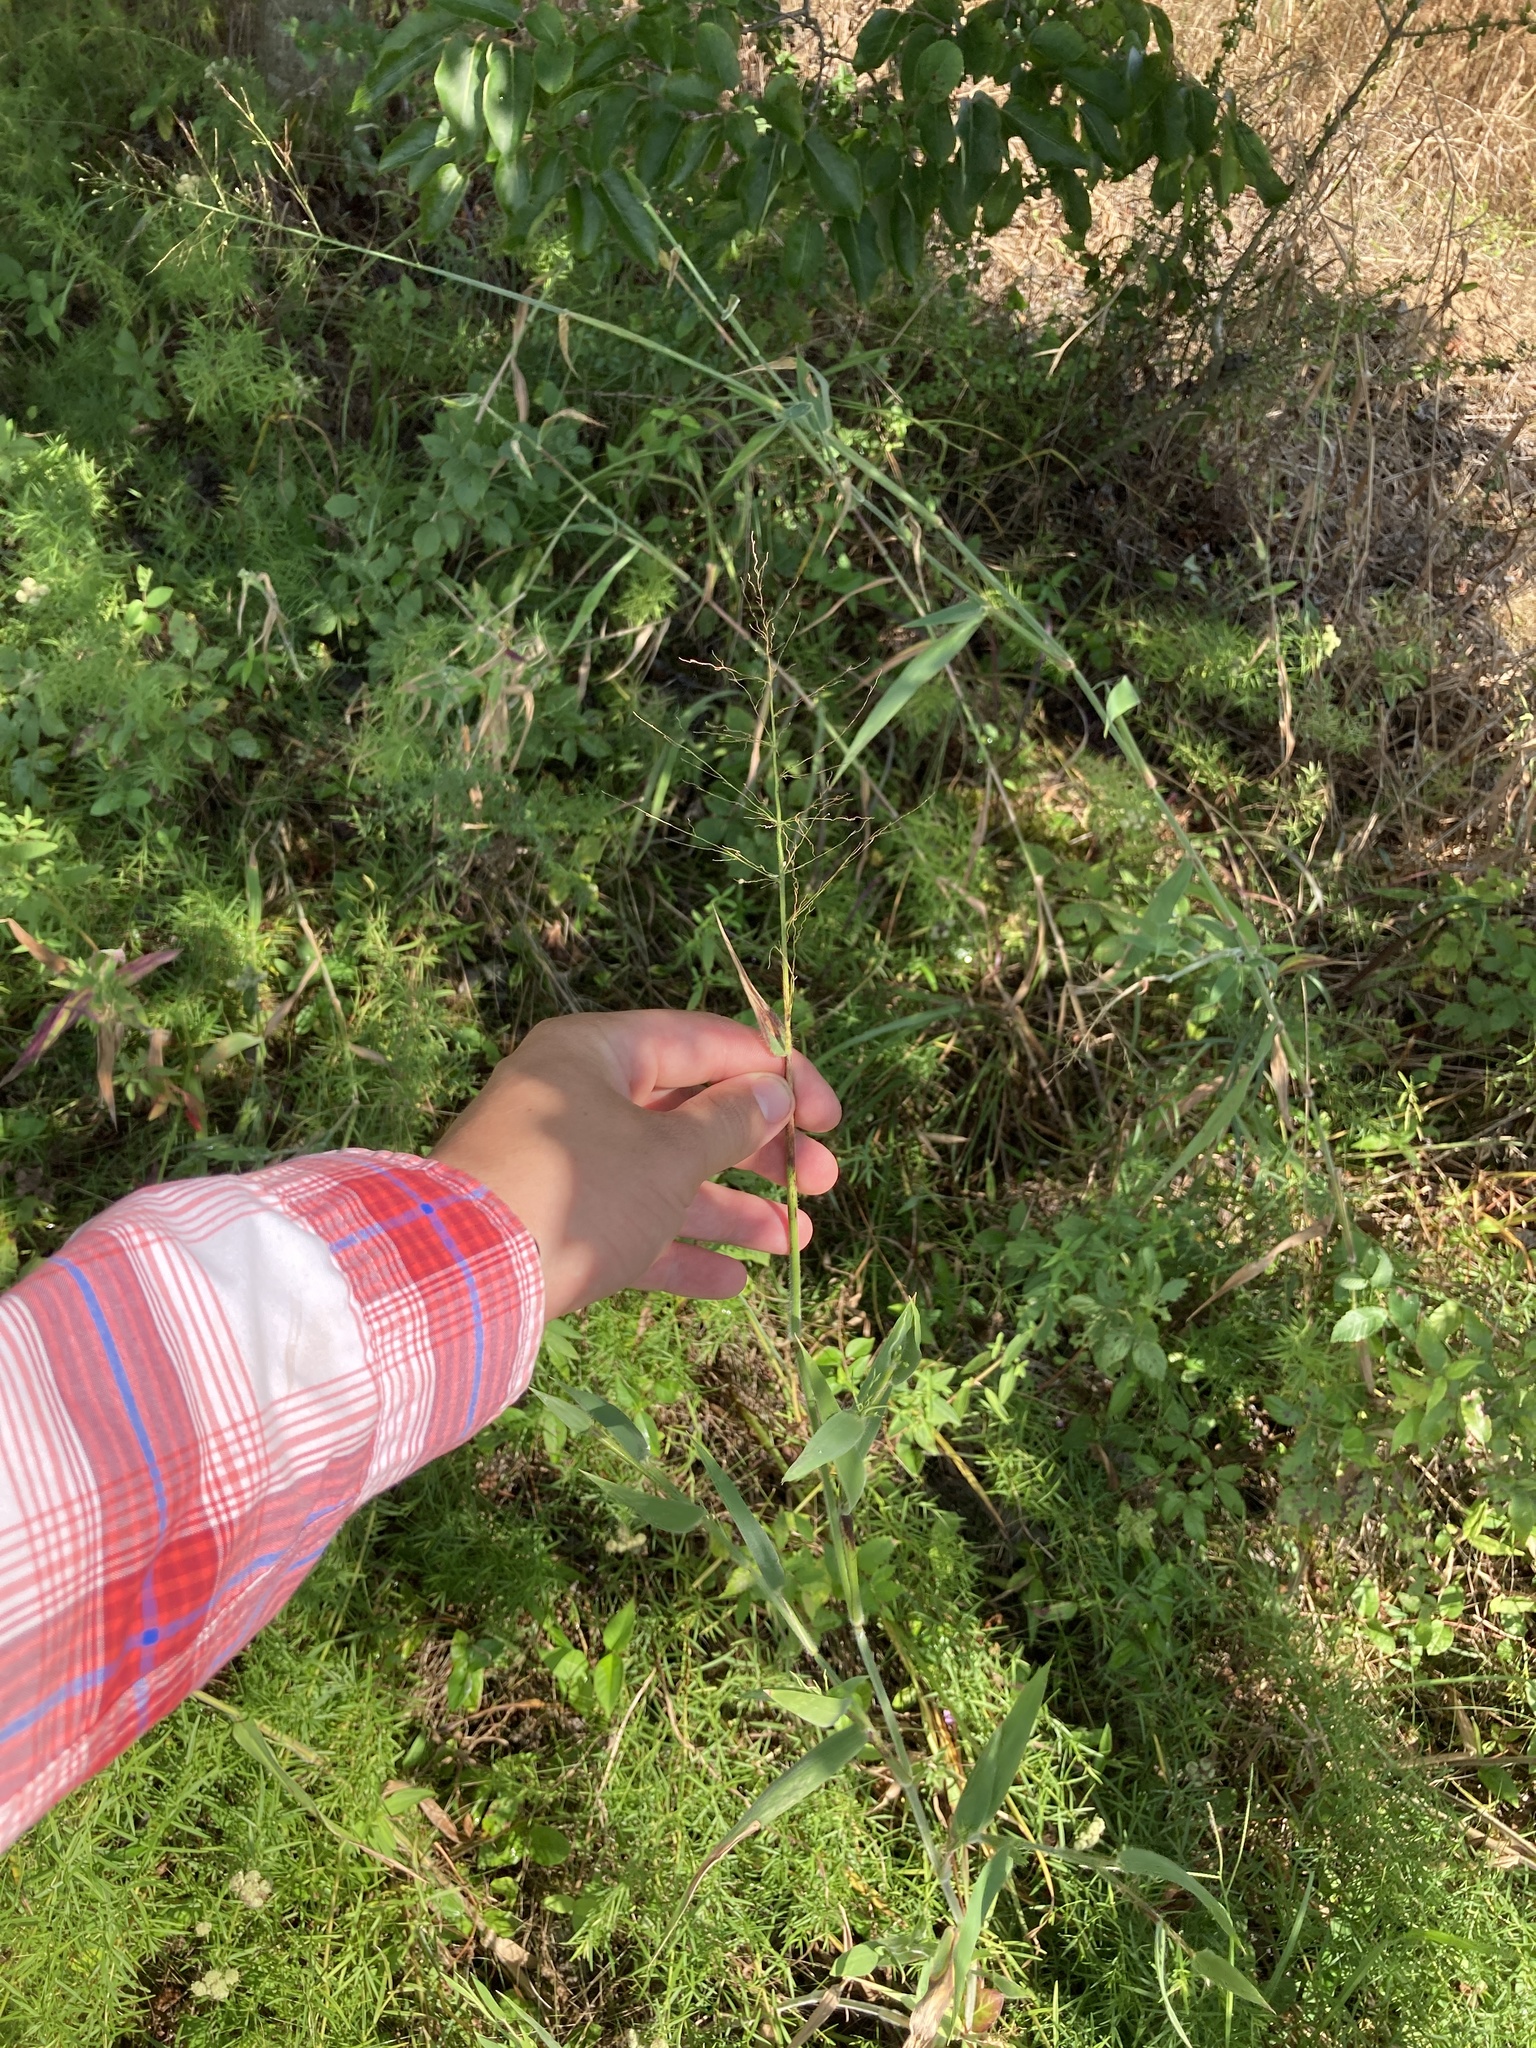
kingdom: Plantae
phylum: Tracheophyta
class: Liliopsida
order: Poales
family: Poaceae
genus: Dichanthelium
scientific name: Dichanthelium scoparium
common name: Velvety panic grass
